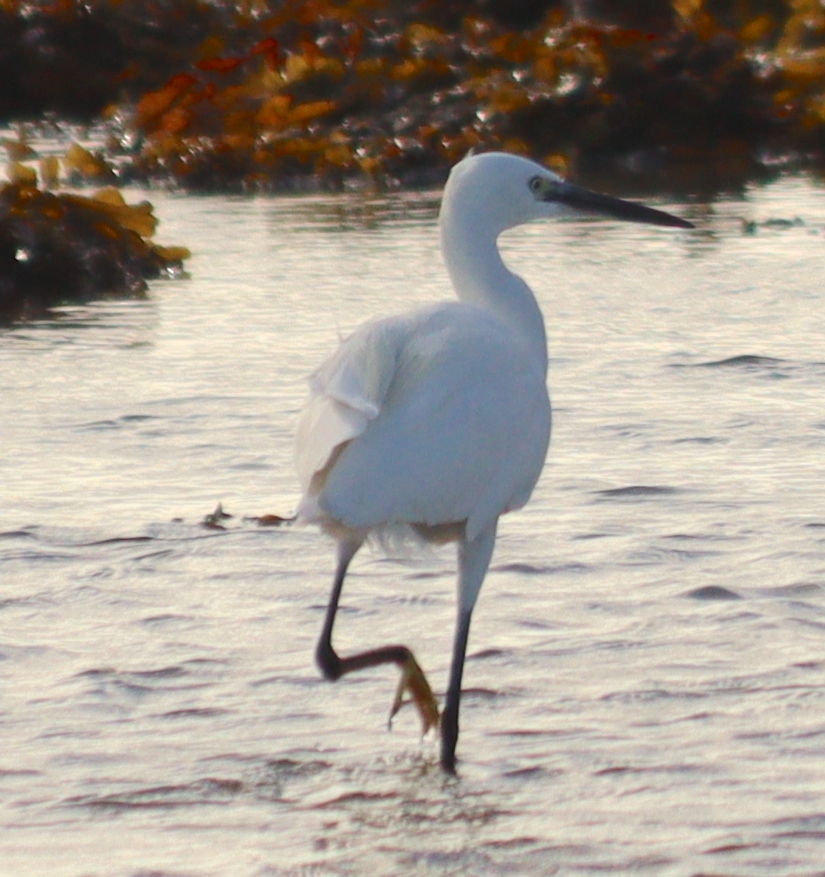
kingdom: Animalia
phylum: Chordata
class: Aves
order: Pelecaniformes
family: Ardeidae
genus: Egretta
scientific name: Egretta garzetta
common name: Little egret
